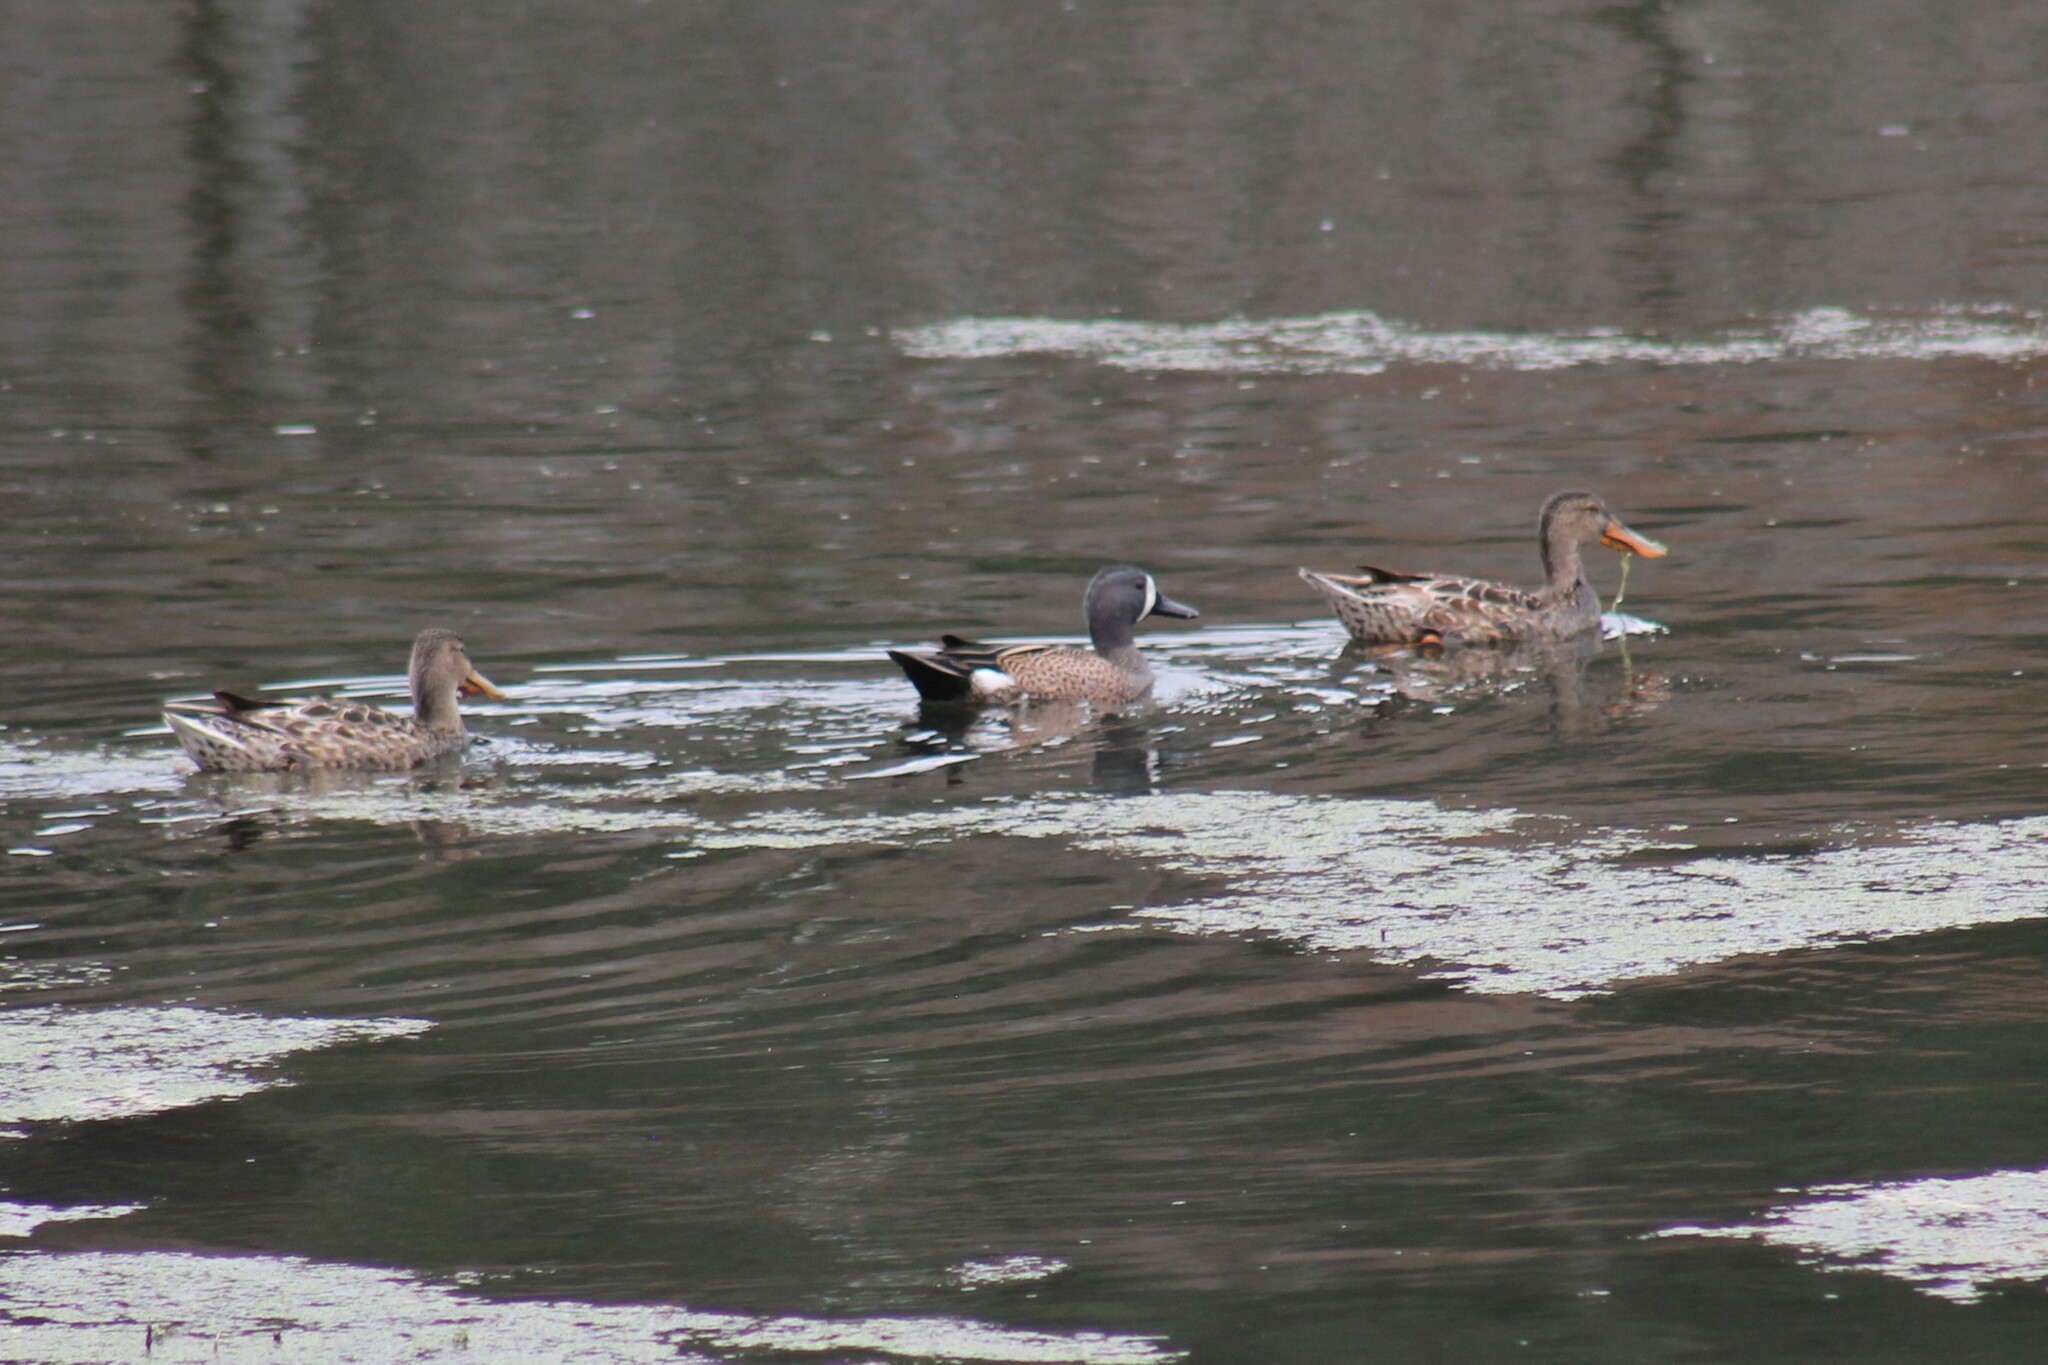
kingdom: Animalia
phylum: Chordata
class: Aves
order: Anseriformes
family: Anatidae
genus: Spatula
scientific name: Spatula discors
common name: Blue-winged teal
